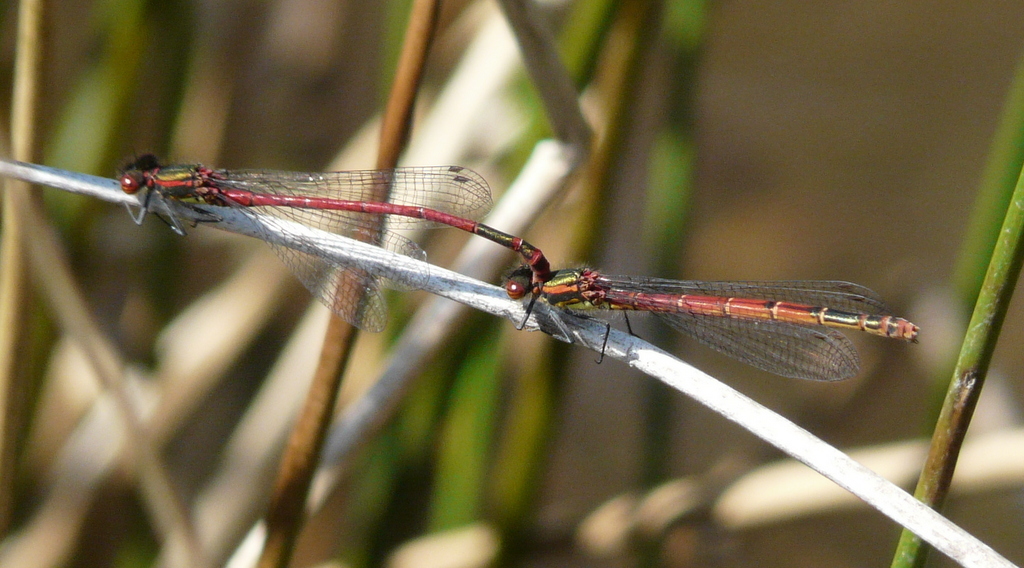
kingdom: Animalia
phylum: Arthropoda
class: Insecta
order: Odonata
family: Coenagrionidae
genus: Pyrrhosoma
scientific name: Pyrrhosoma nymphula
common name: Large red damsel
